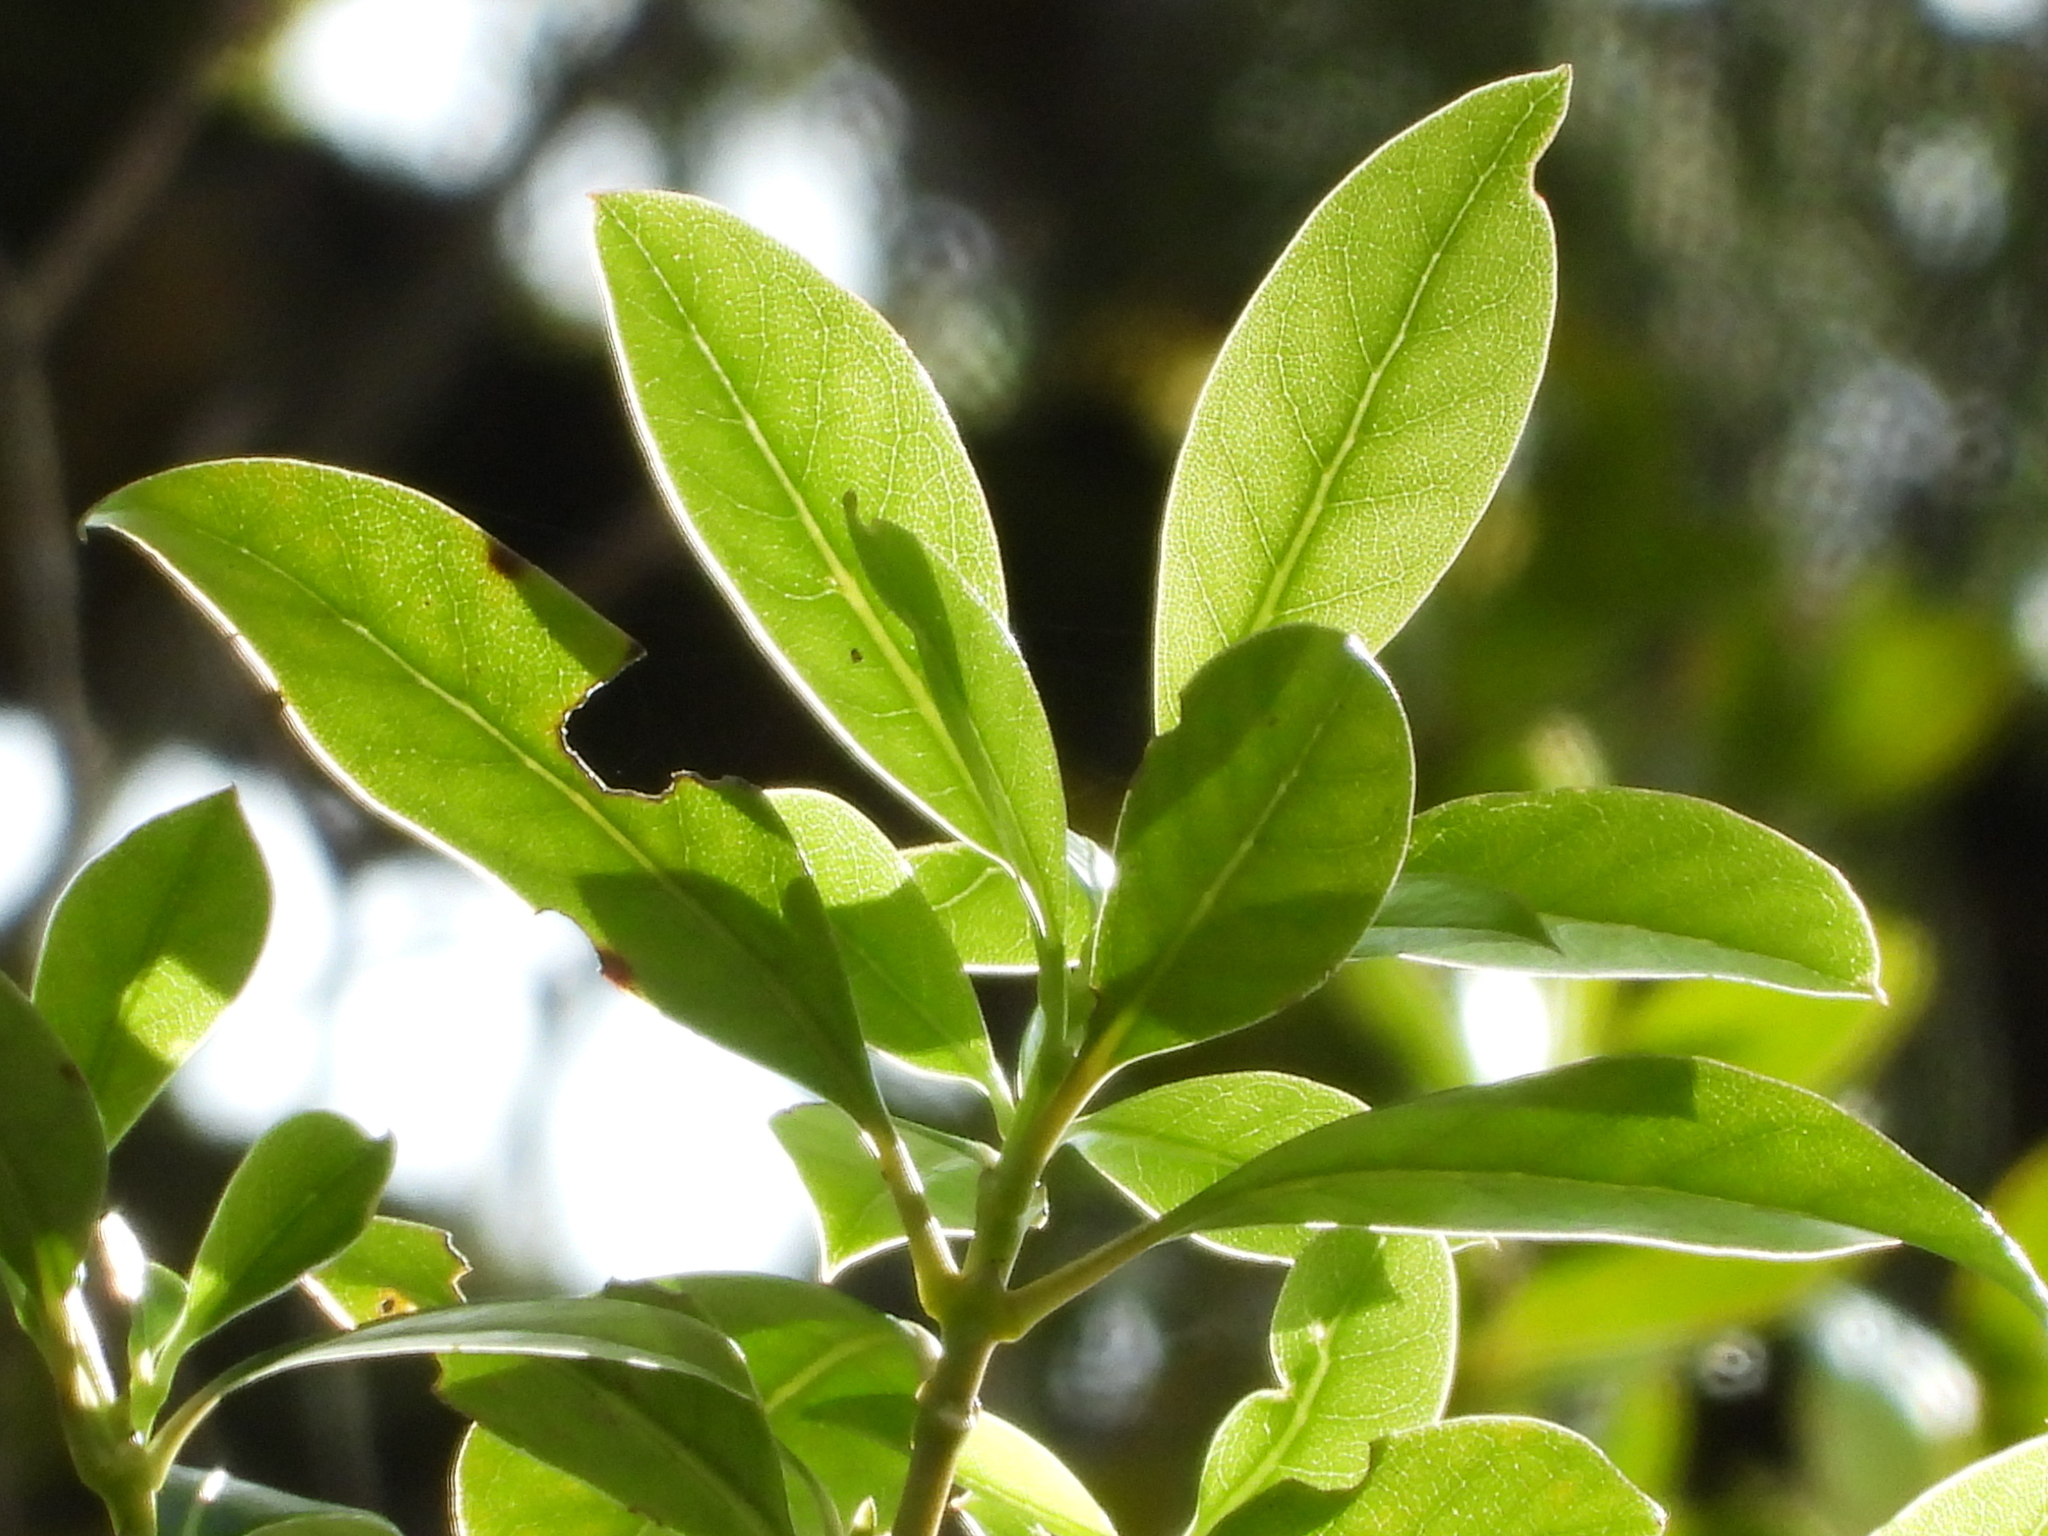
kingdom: Plantae
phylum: Tracheophyta
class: Magnoliopsida
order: Gentianales
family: Rubiaceae
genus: Coprosma
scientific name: Coprosma lucida
